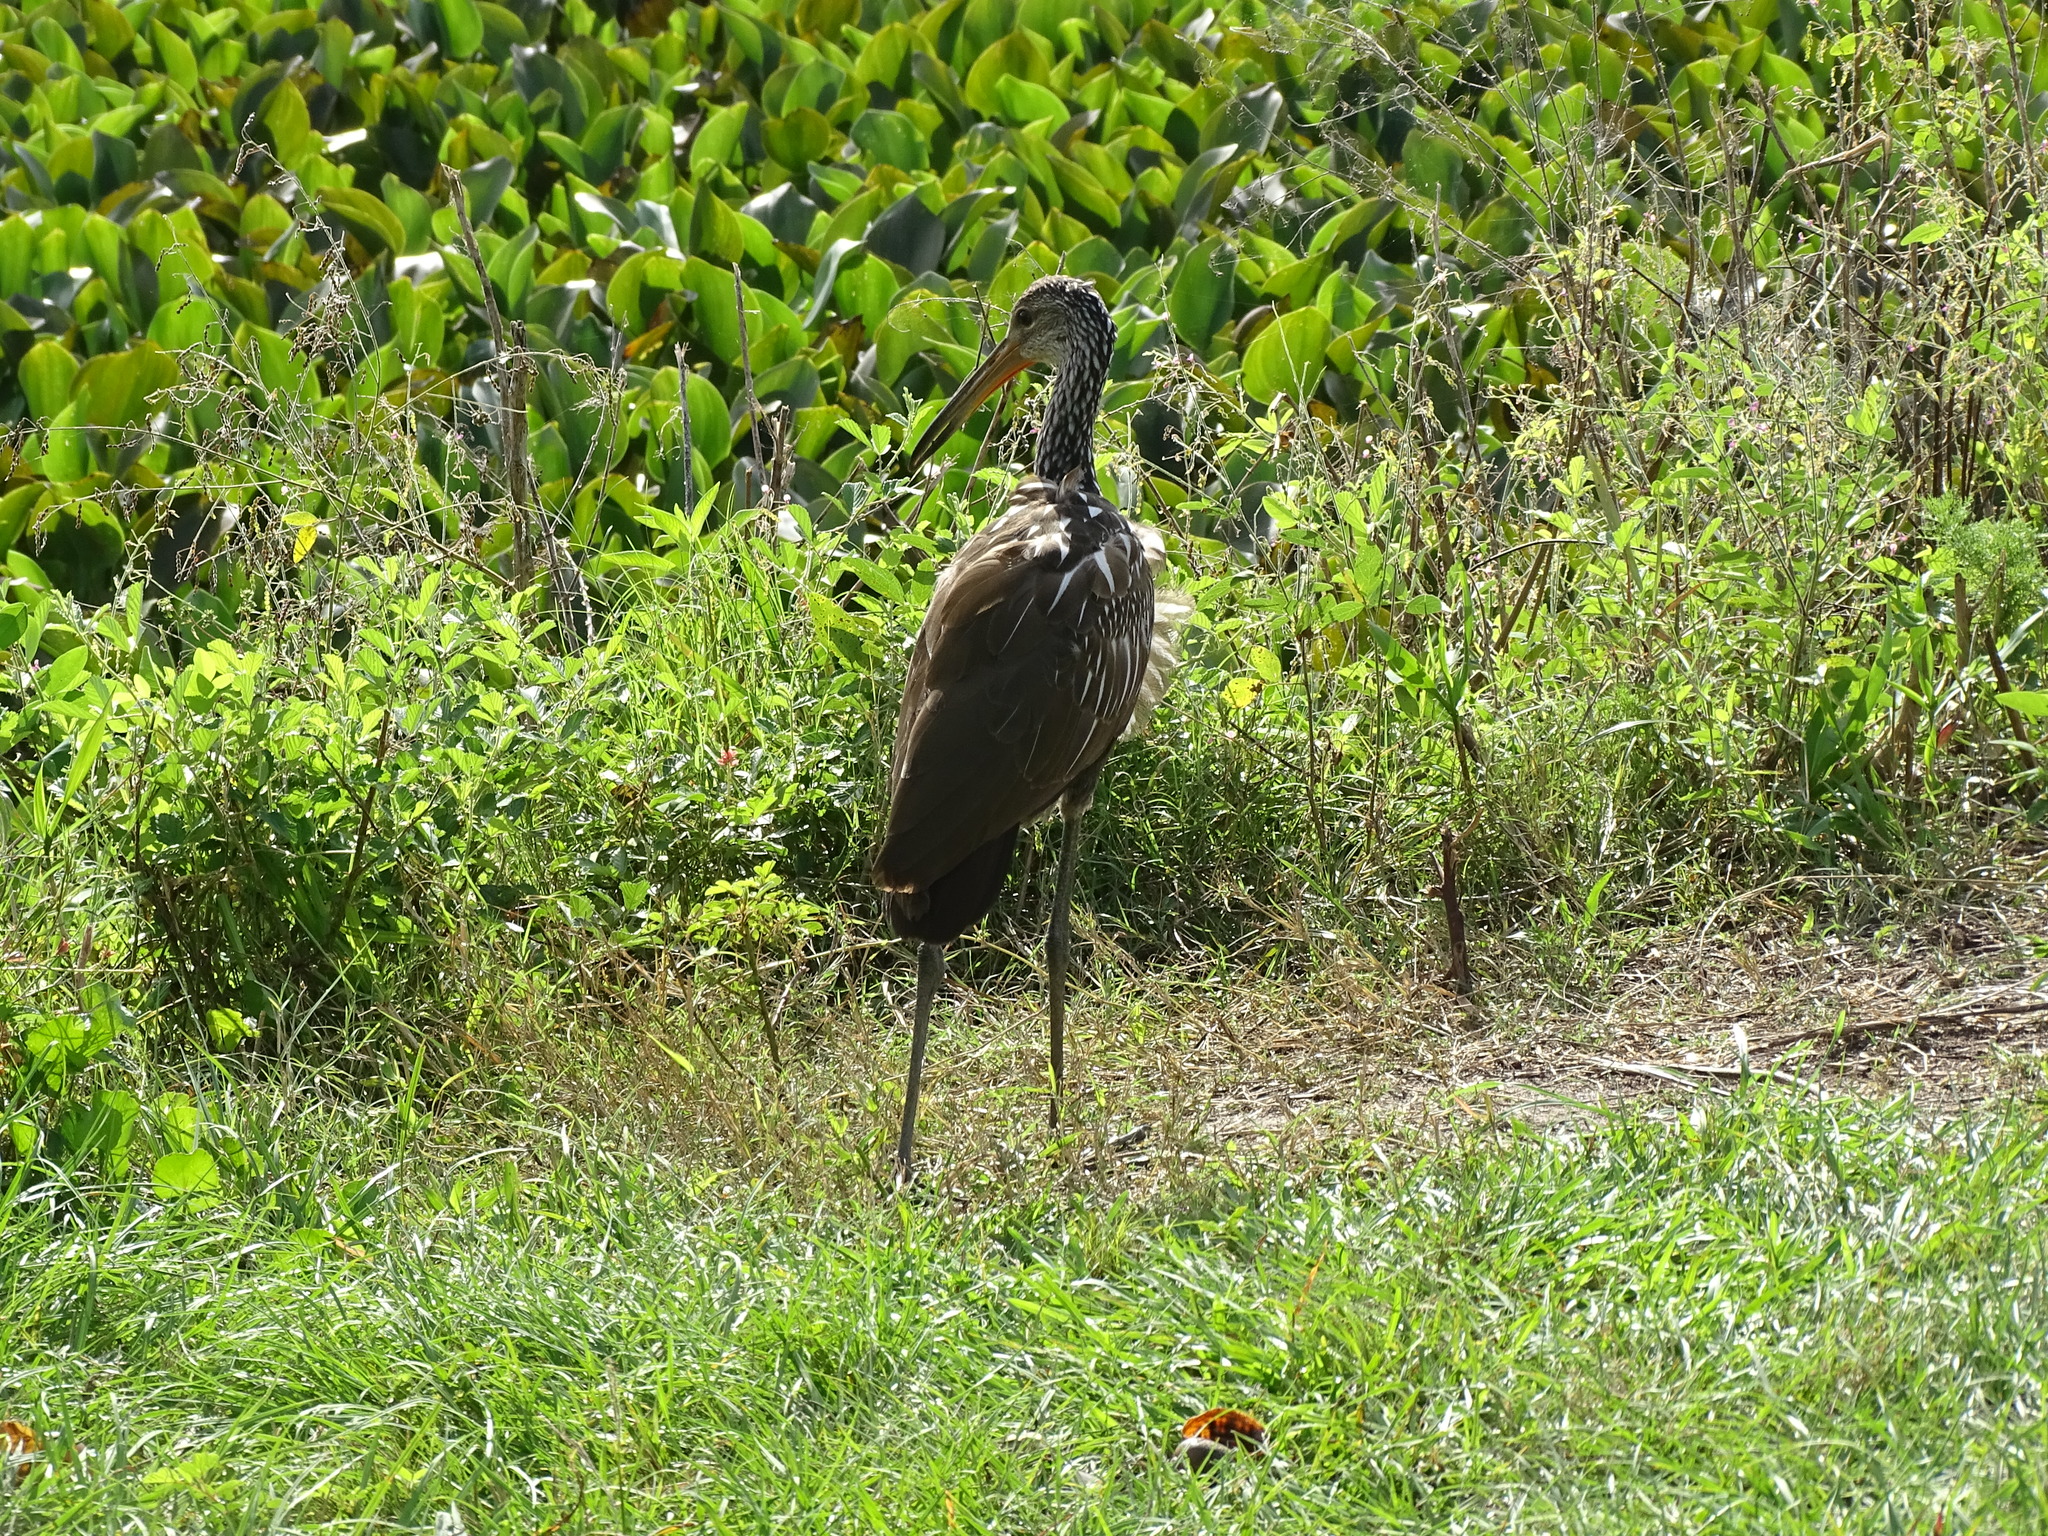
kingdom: Animalia
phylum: Chordata
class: Aves
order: Gruiformes
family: Aramidae
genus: Aramus
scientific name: Aramus guarauna
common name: Limpkin
